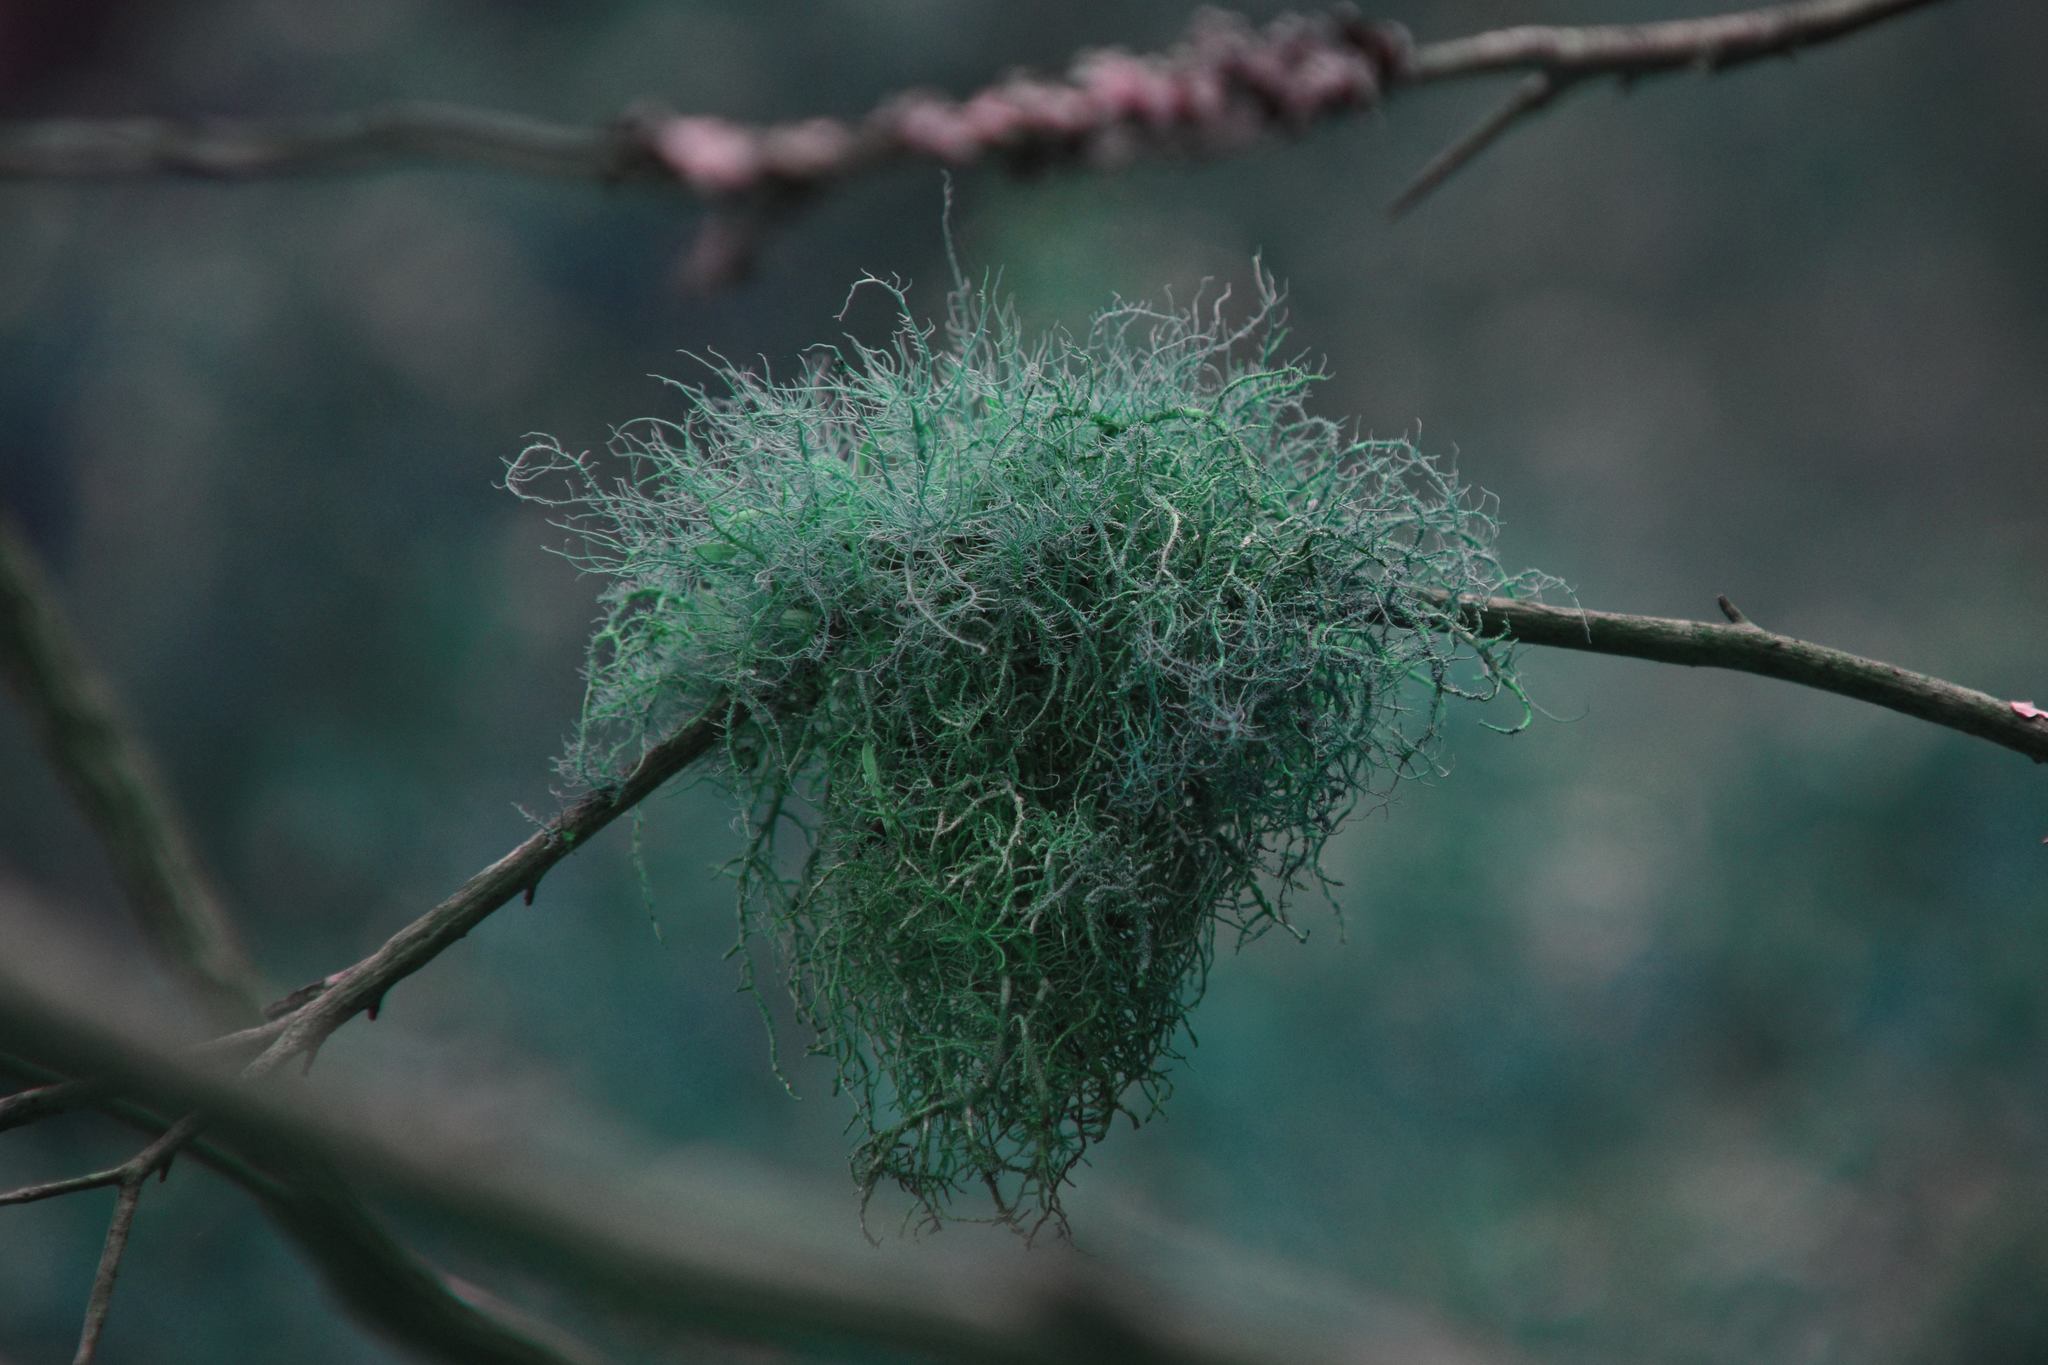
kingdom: Fungi
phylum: Ascomycota
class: Lecanoromycetes
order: Lecanorales
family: Parmeliaceae
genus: Usnea
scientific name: Usnea rubicunda
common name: Red beard lichen
